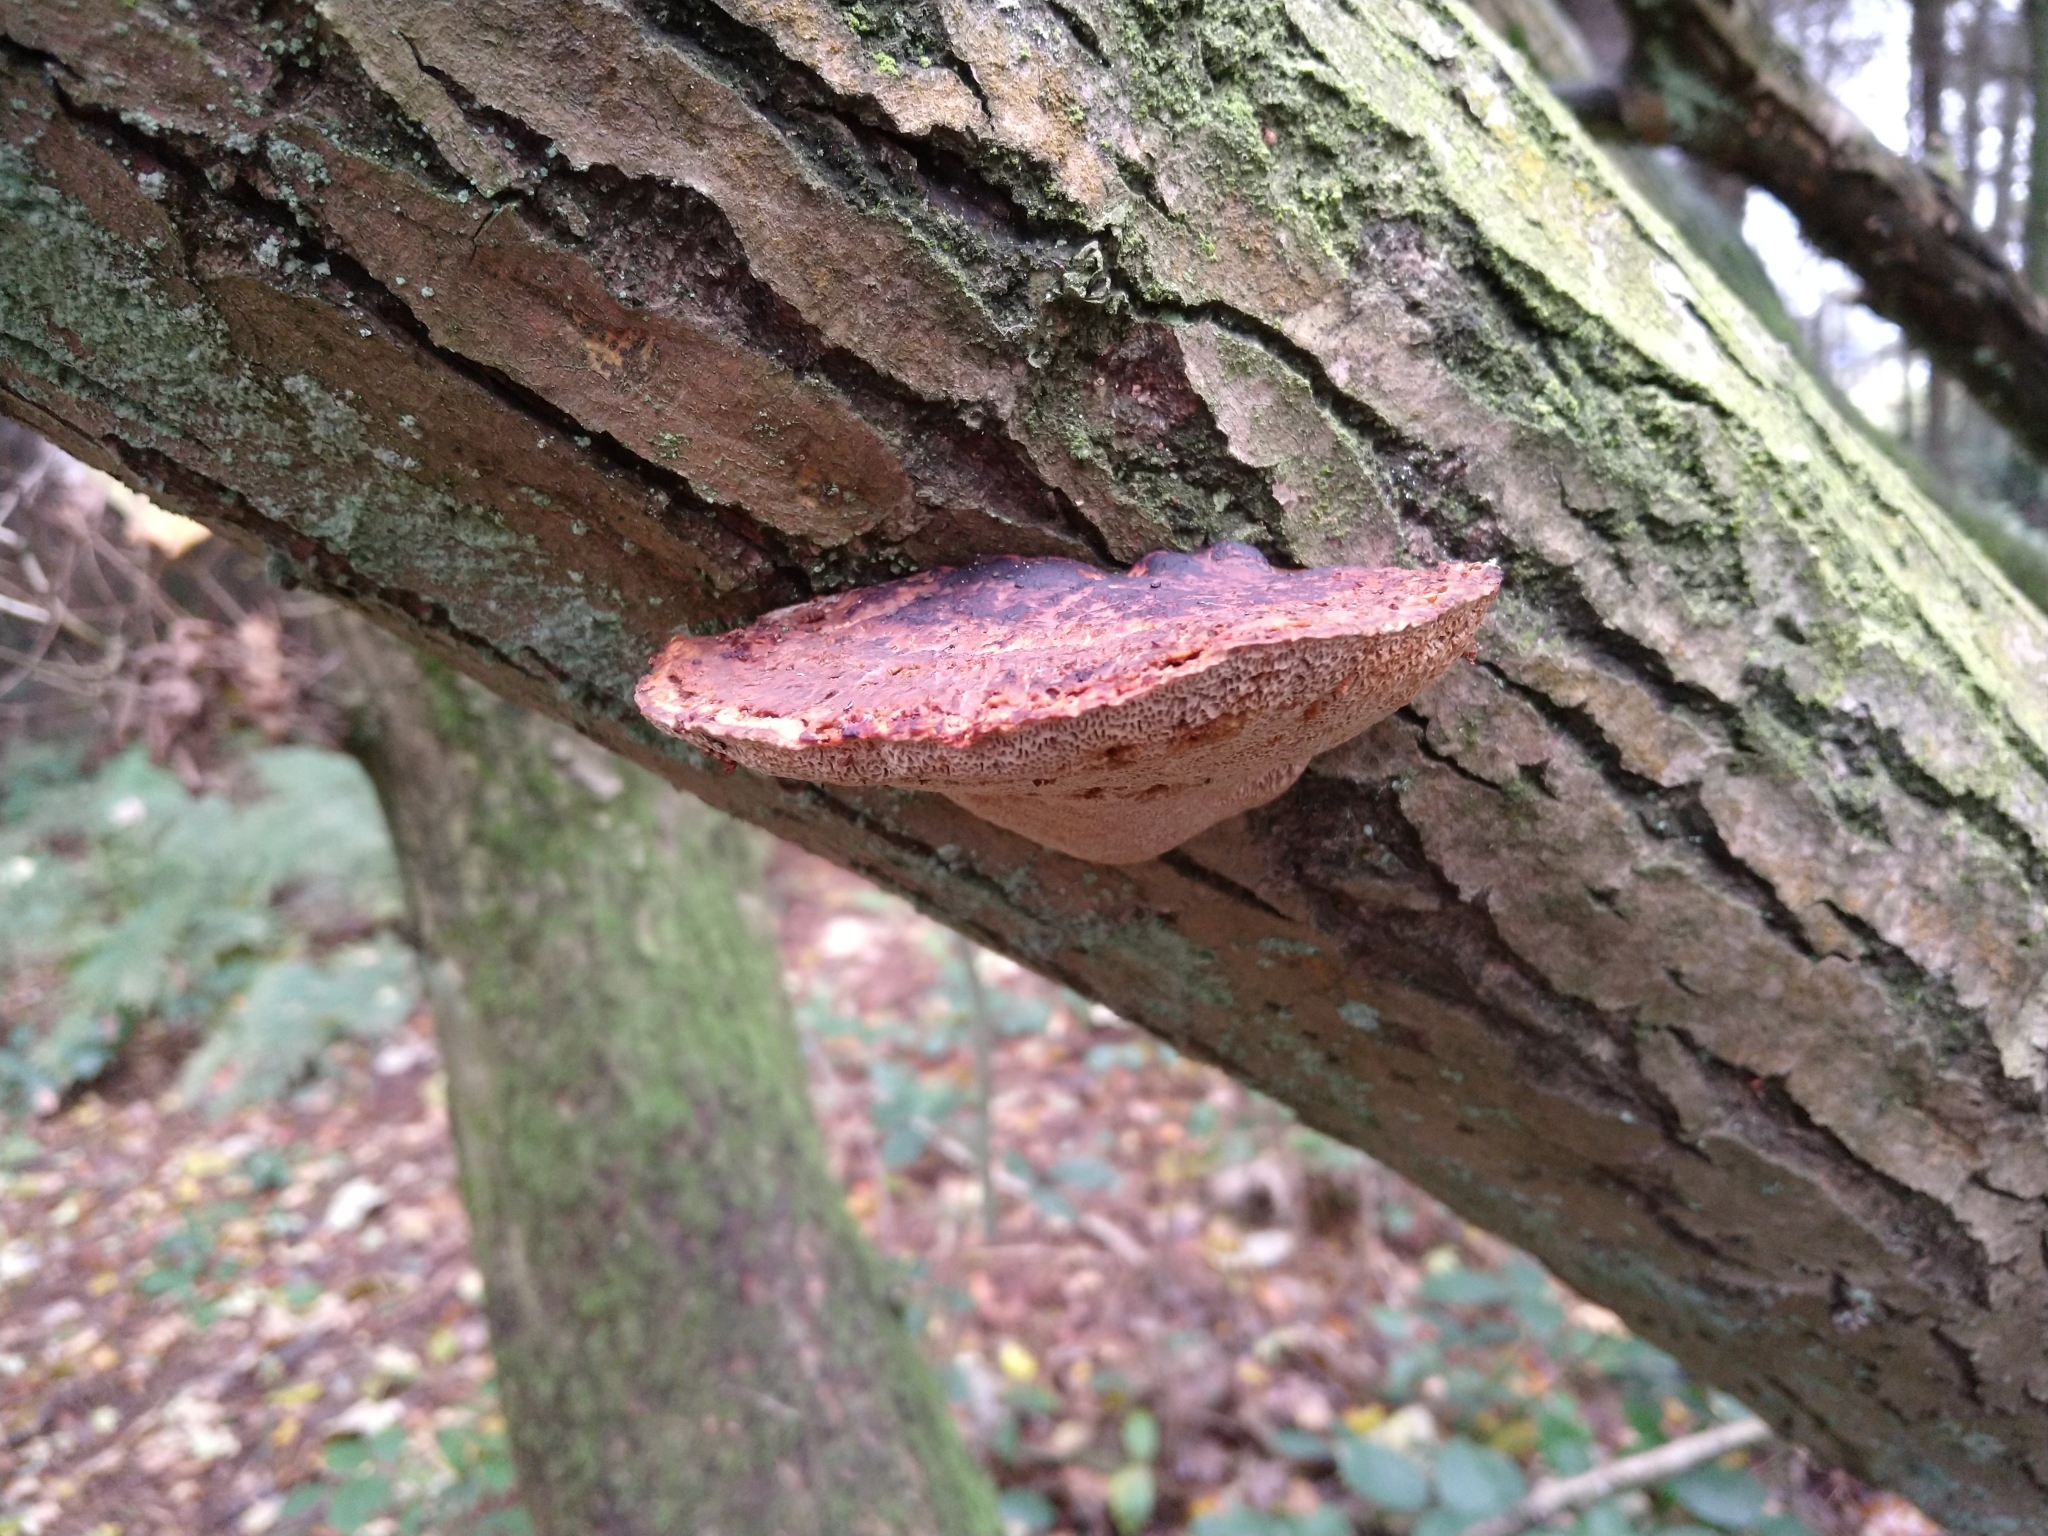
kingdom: Fungi
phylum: Basidiomycota
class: Agaricomycetes
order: Polyporales
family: Polyporaceae
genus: Daedaleopsis
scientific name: Daedaleopsis confragosa
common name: Blushing bracket
